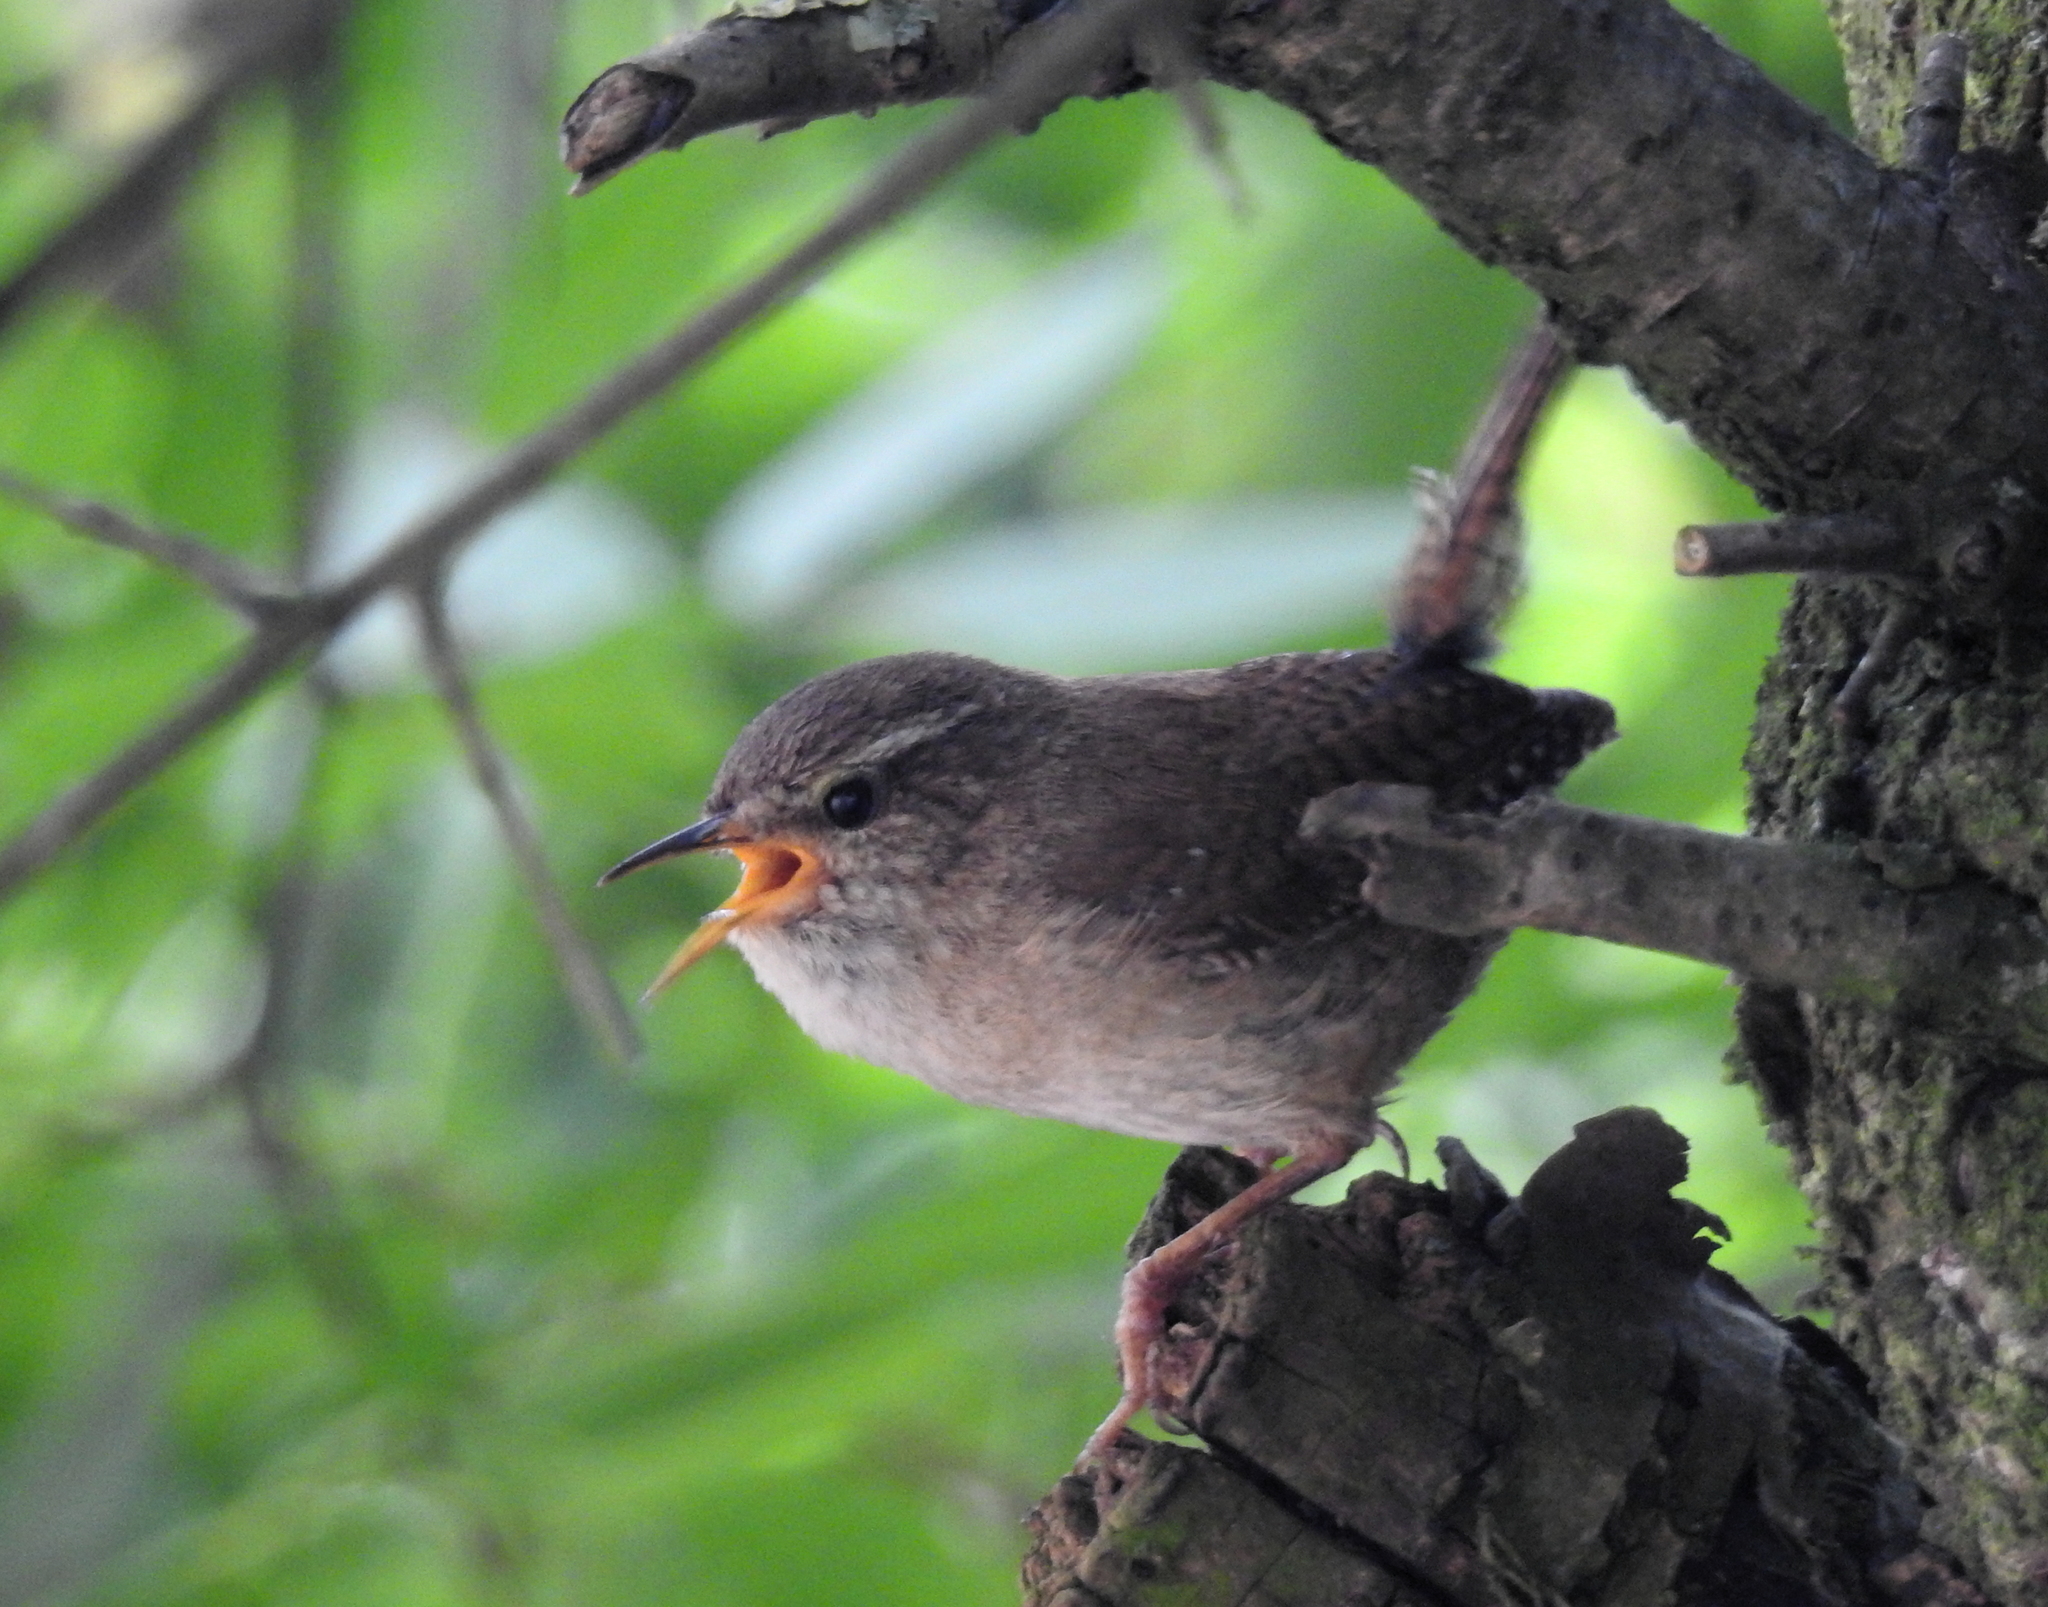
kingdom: Animalia
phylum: Chordata
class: Aves
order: Passeriformes
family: Troglodytidae
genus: Troglodytes
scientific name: Troglodytes troglodytes
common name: Eurasian wren
